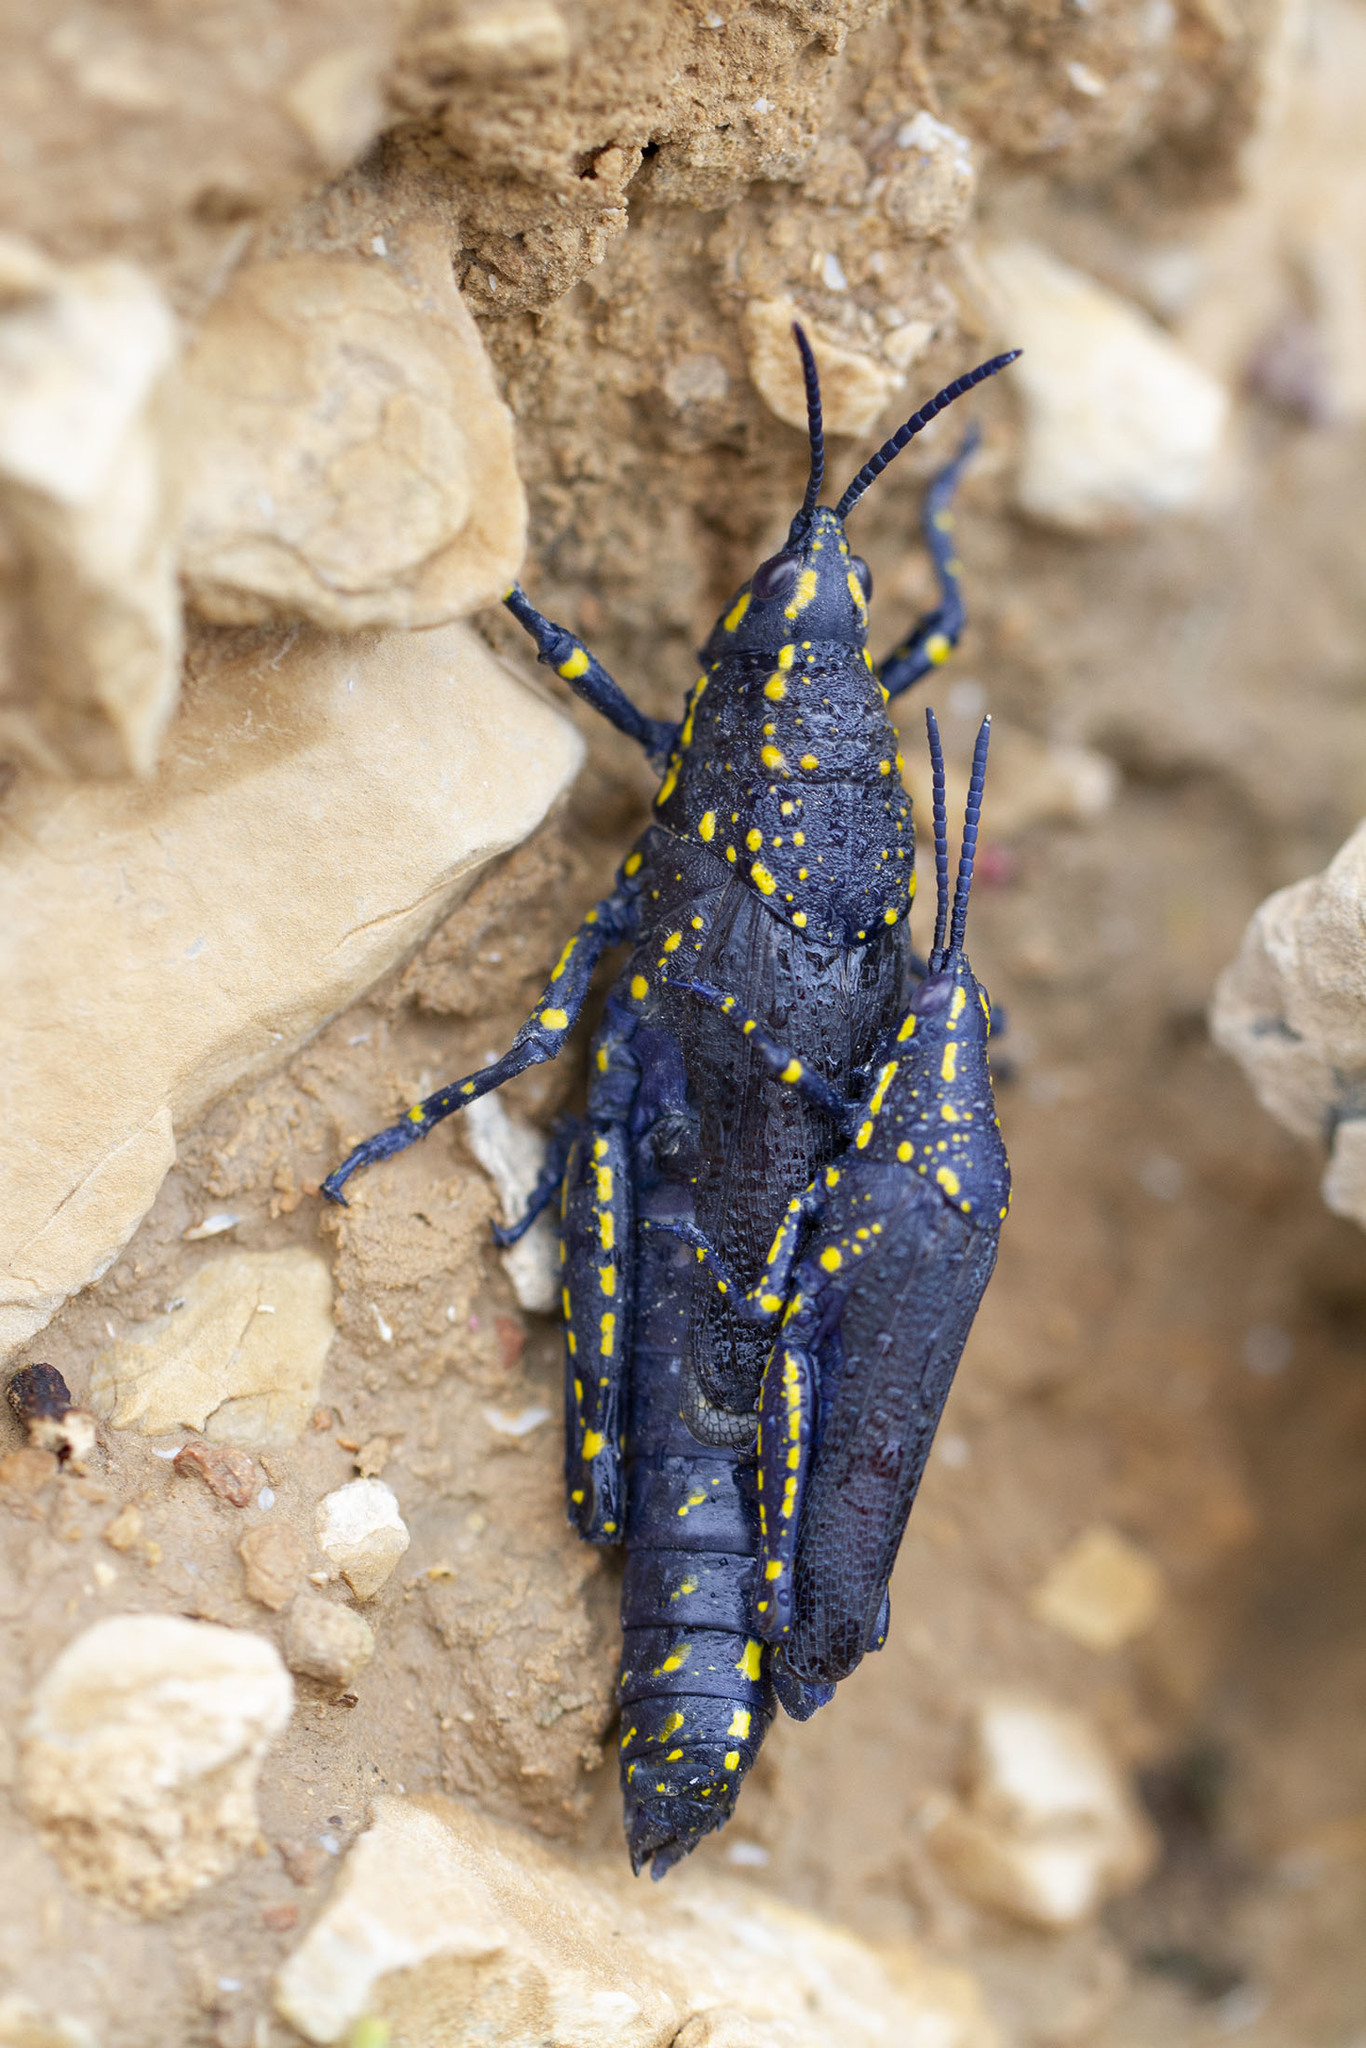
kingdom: Animalia
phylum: Arthropoda
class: Insecta
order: Orthoptera
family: Pyrgomorphidae
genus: Poekilocerus
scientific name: Poekilocerus bufonius
